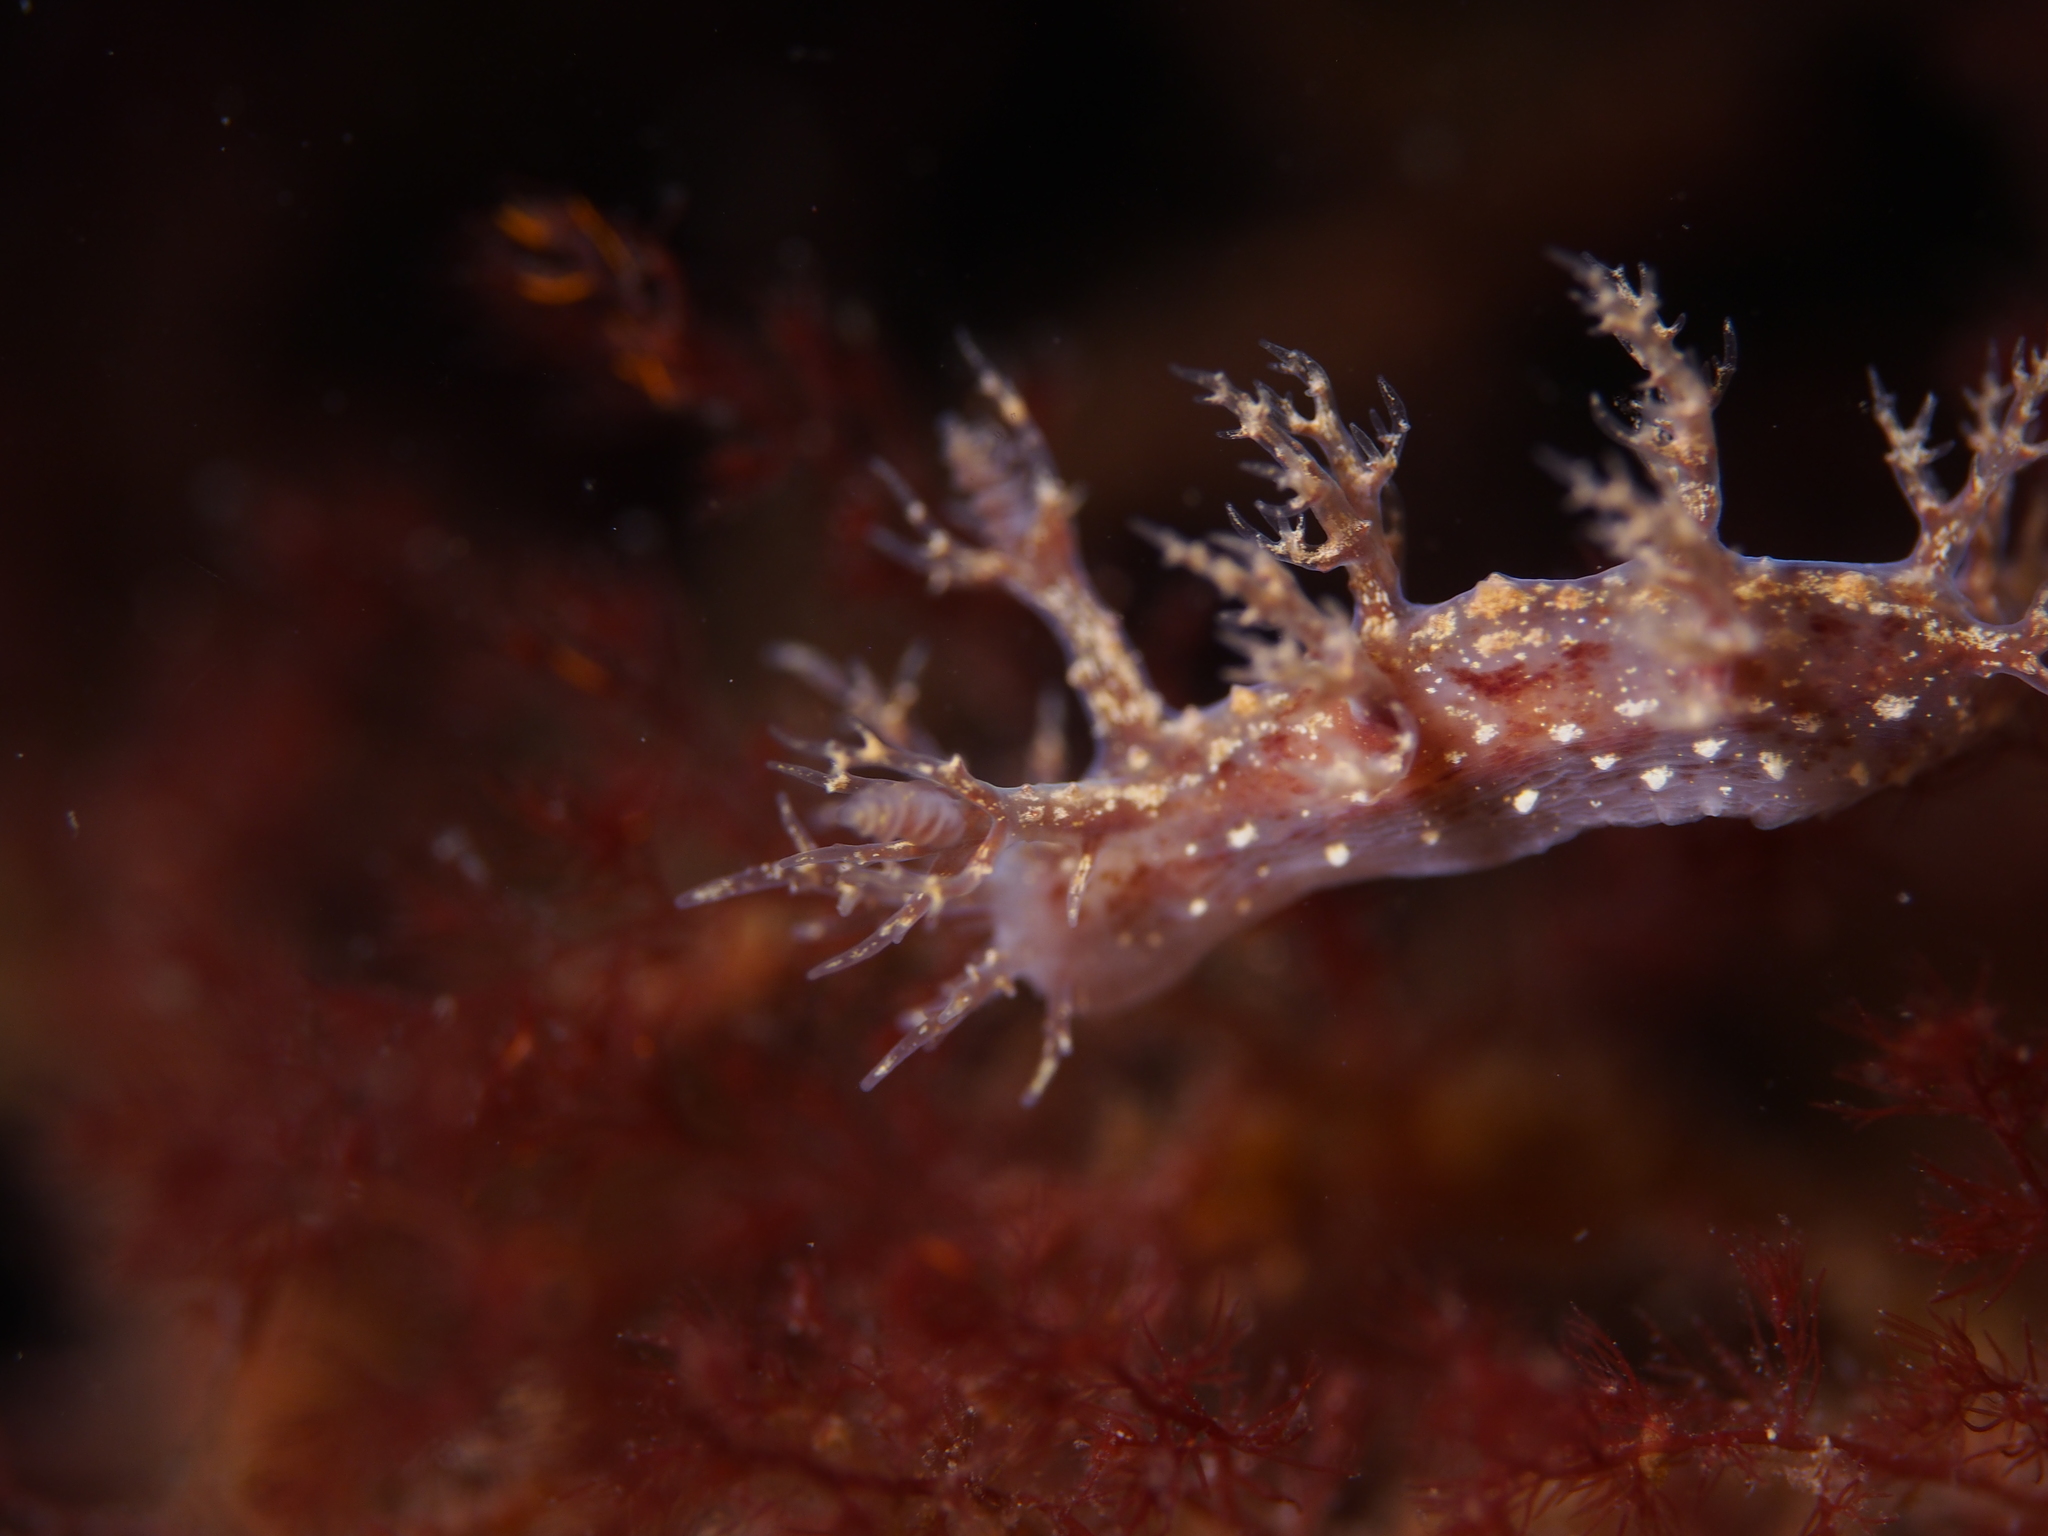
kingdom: Animalia
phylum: Mollusca
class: Gastropoda
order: Nudibranchia
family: Dendronotidae
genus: Dendronotus
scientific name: Dendronotus frondosus
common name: Bushy-backed nudibranch
